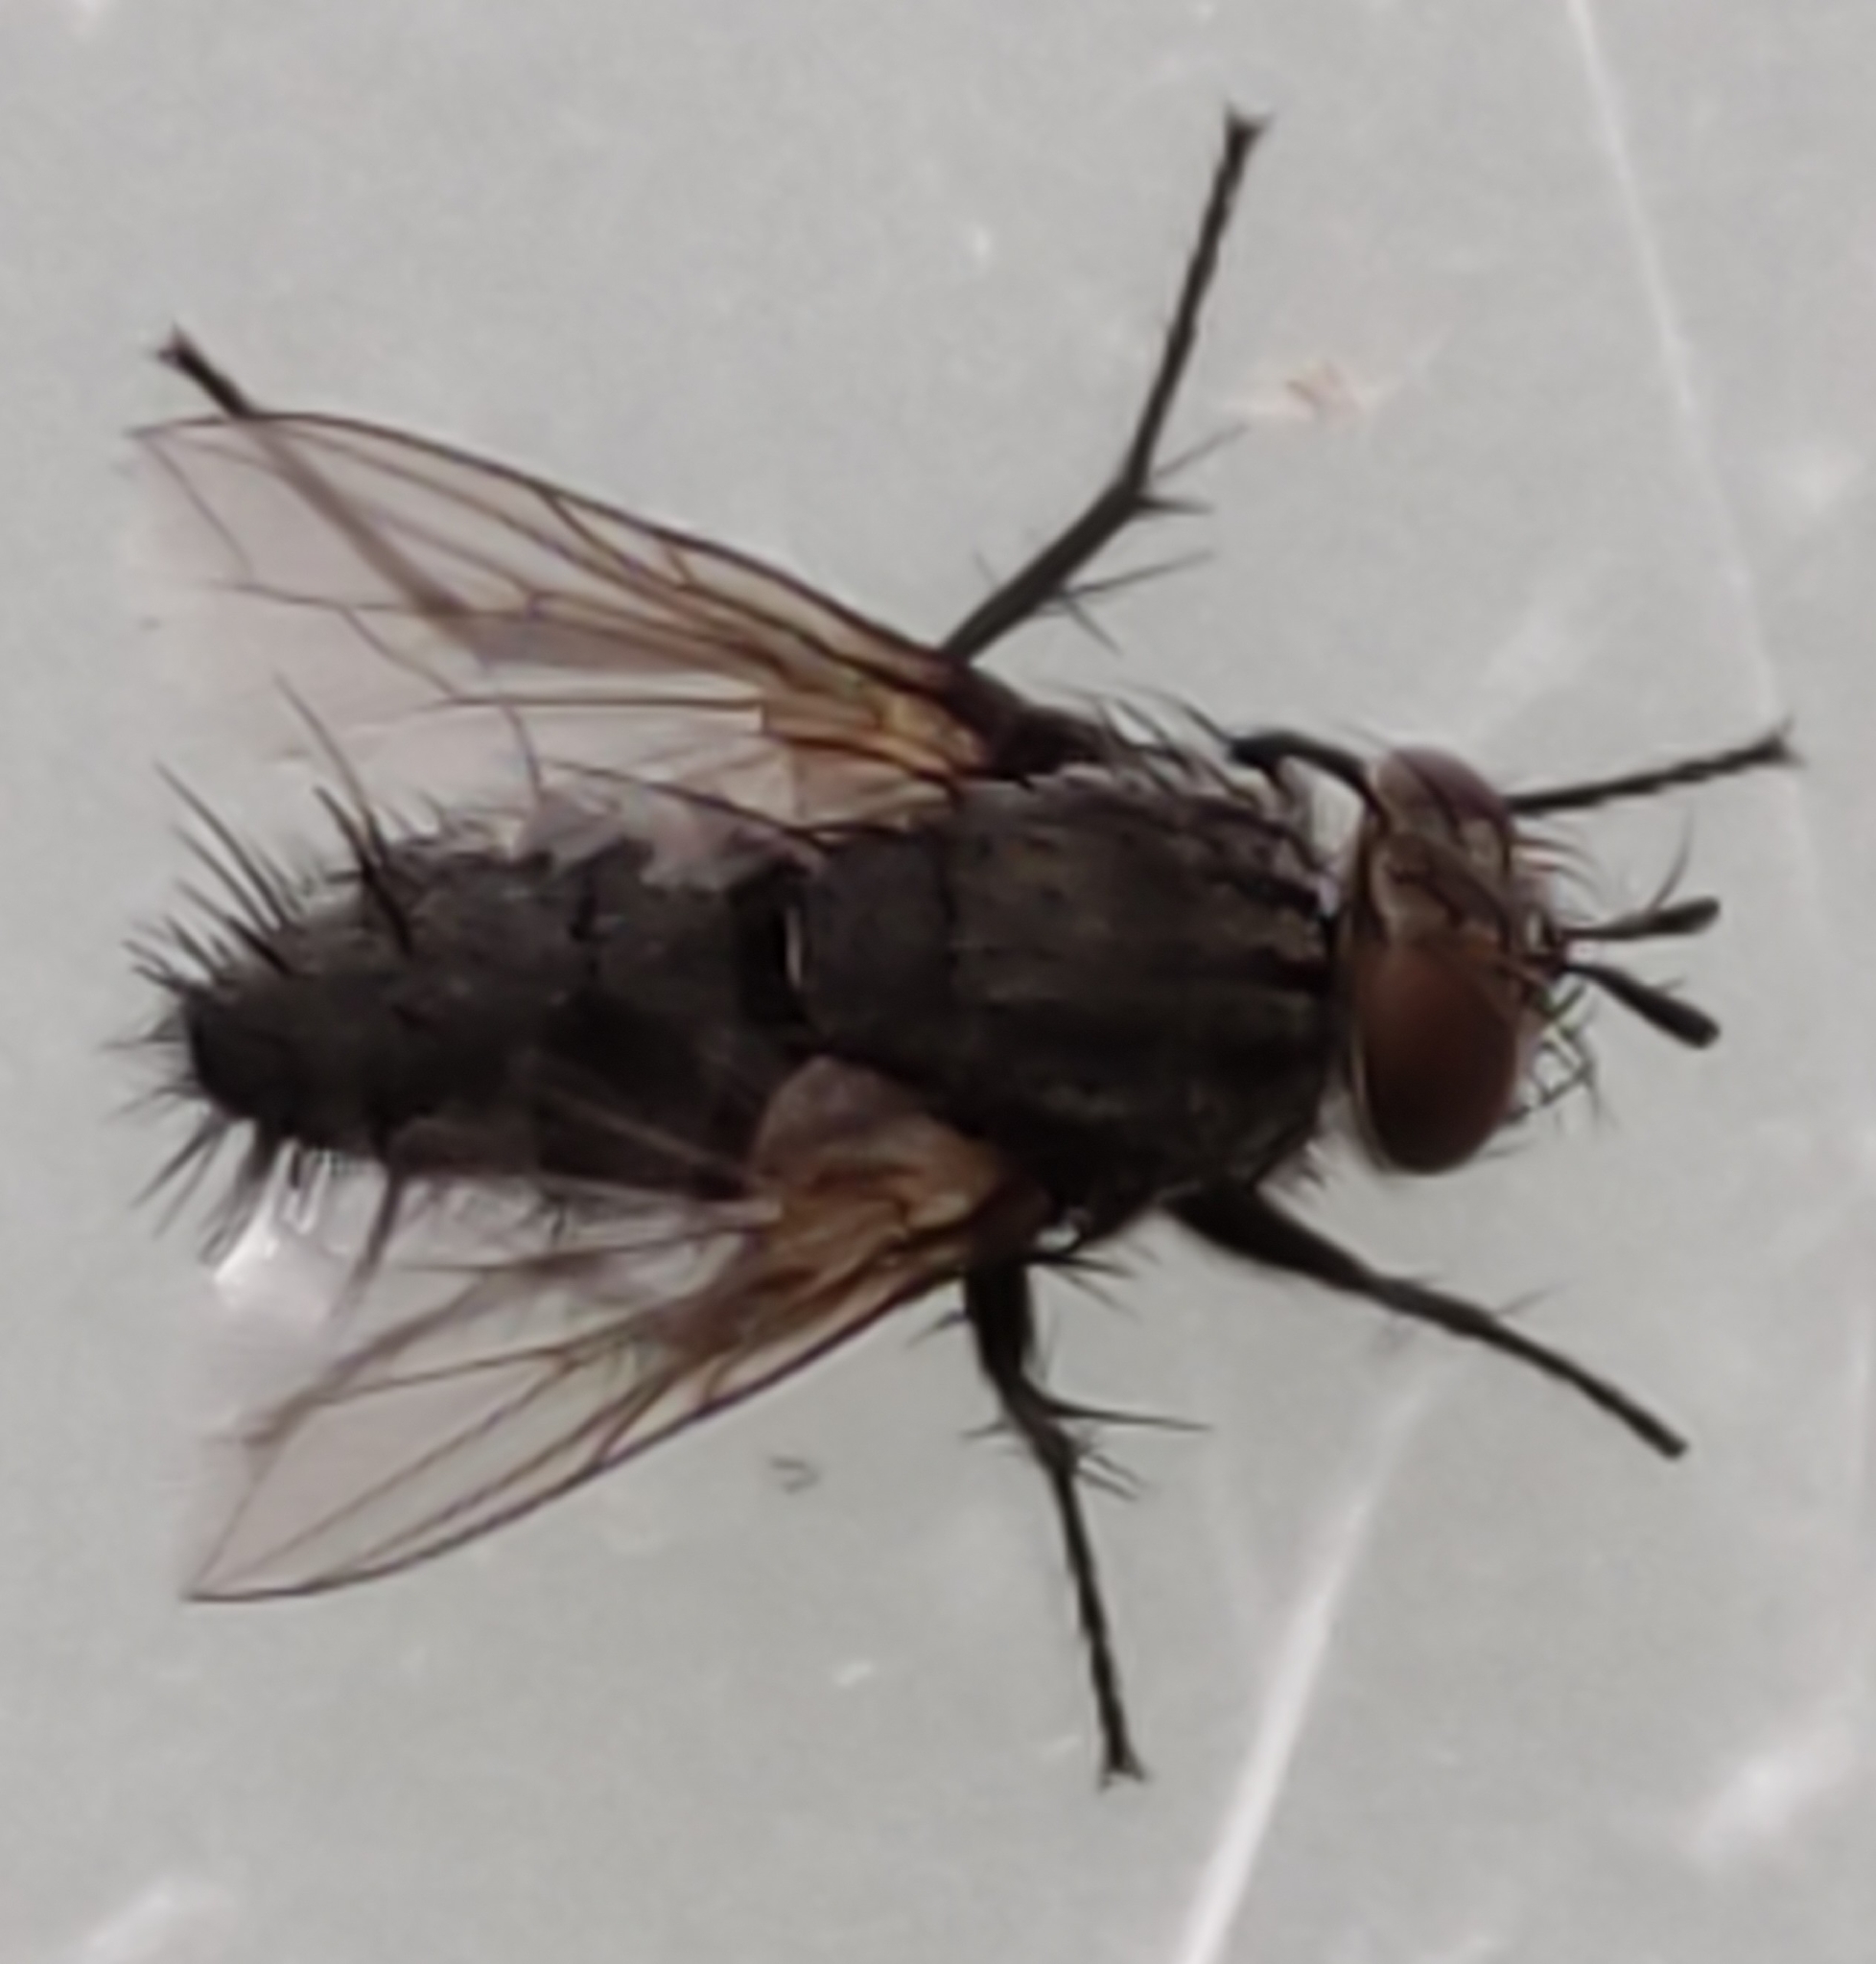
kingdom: Animalia
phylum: Arthropoda
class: Insecta
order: Diptera
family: Tachinidae
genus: Voria
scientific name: Voria ruralis
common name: Parasitic fly
